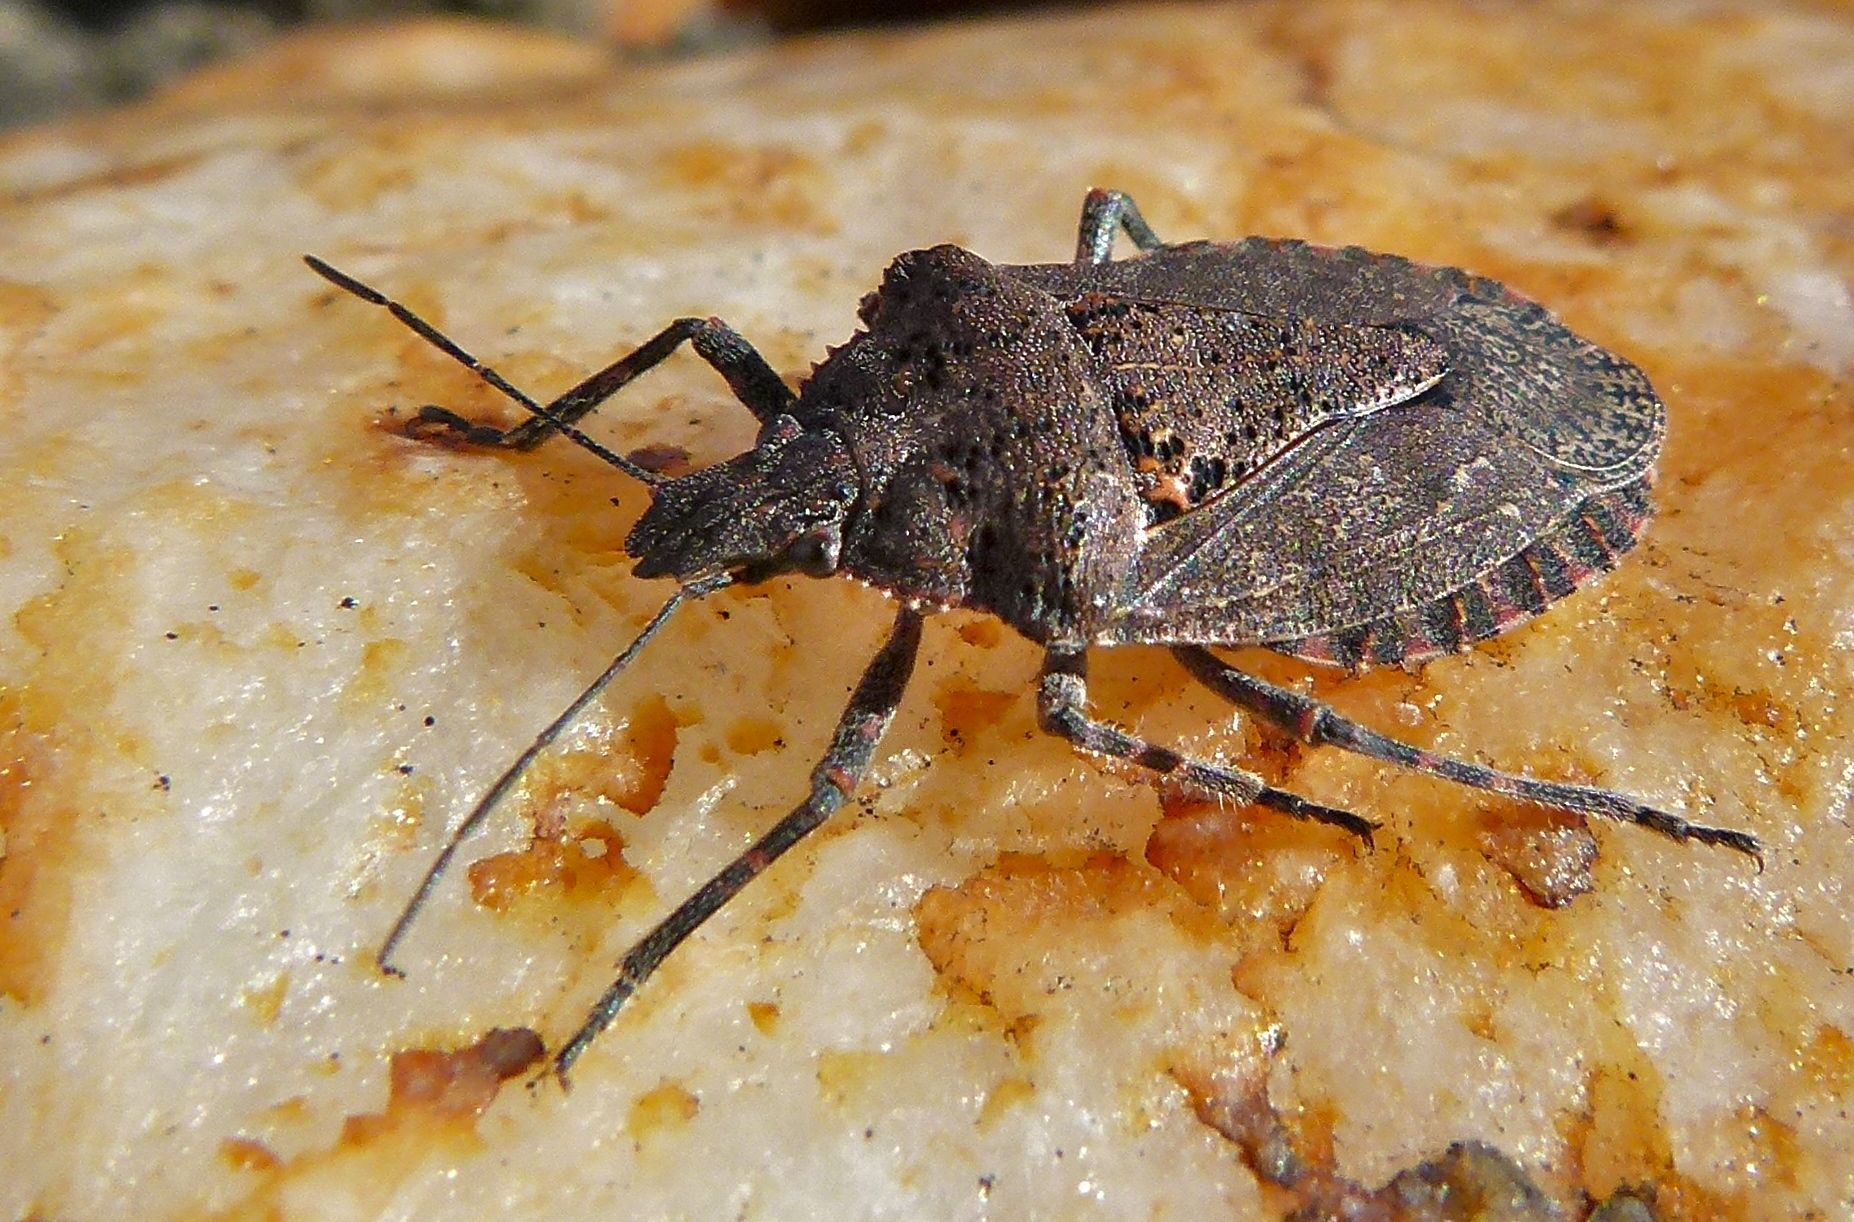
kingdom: Animalia
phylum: Arthropoda
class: Insecta
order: Hemiptera
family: Pentatomidae
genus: Brochymena
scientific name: Brochymena quadripustulata
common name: Four-humped stink bug
